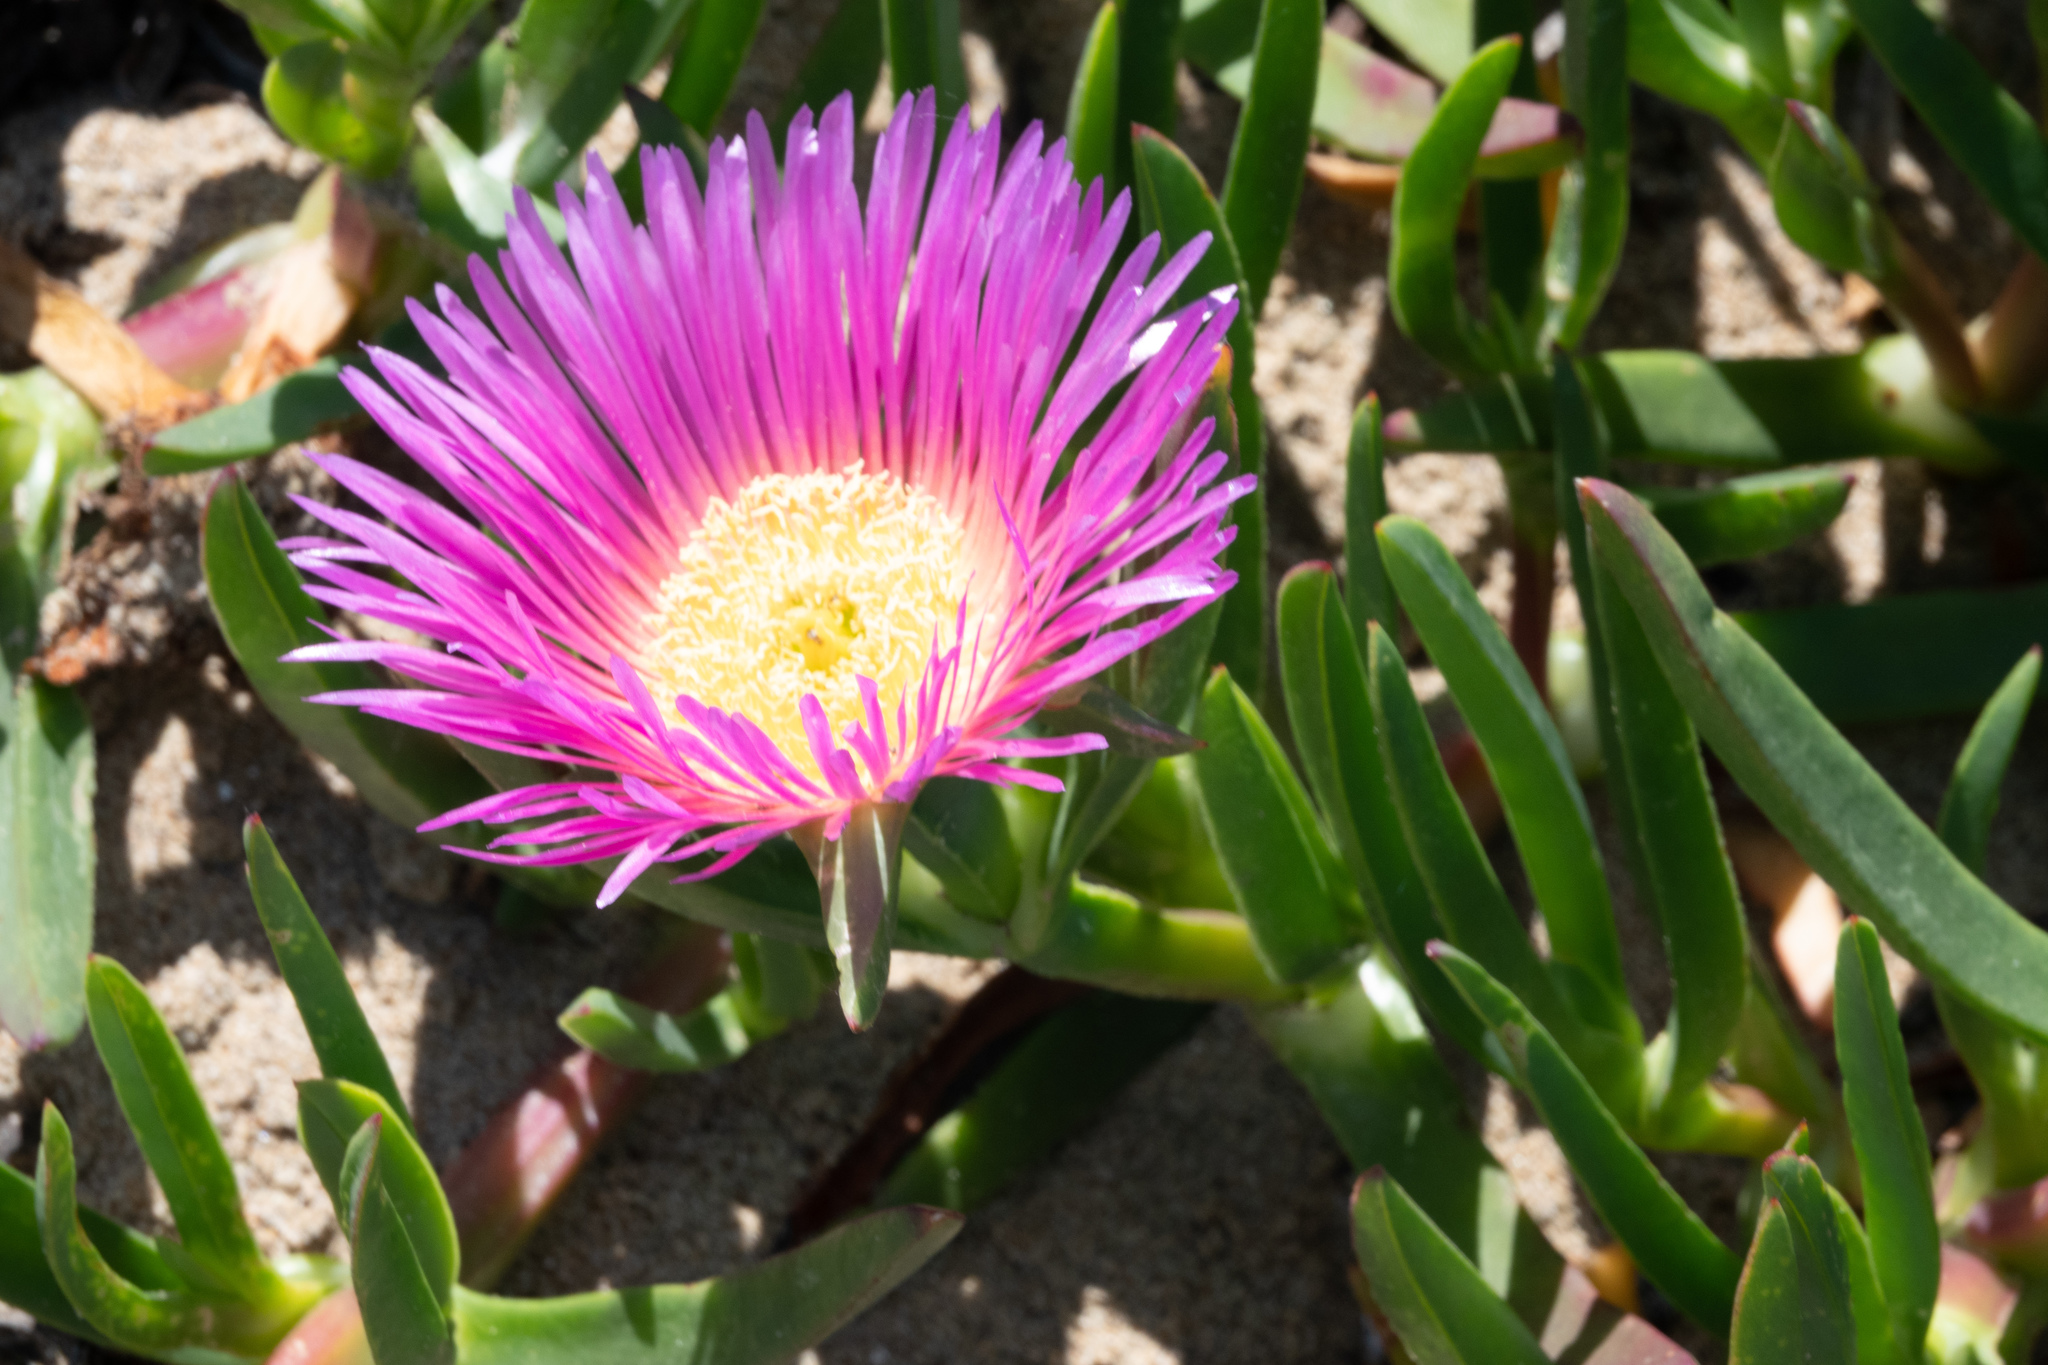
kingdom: Plantae
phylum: Tracheophyta
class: Magnoliopsida
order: Caryophyllales
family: Aizoaceae
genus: Carpobrotus
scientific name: Carpobrotus edulis
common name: Hottentot-fig
